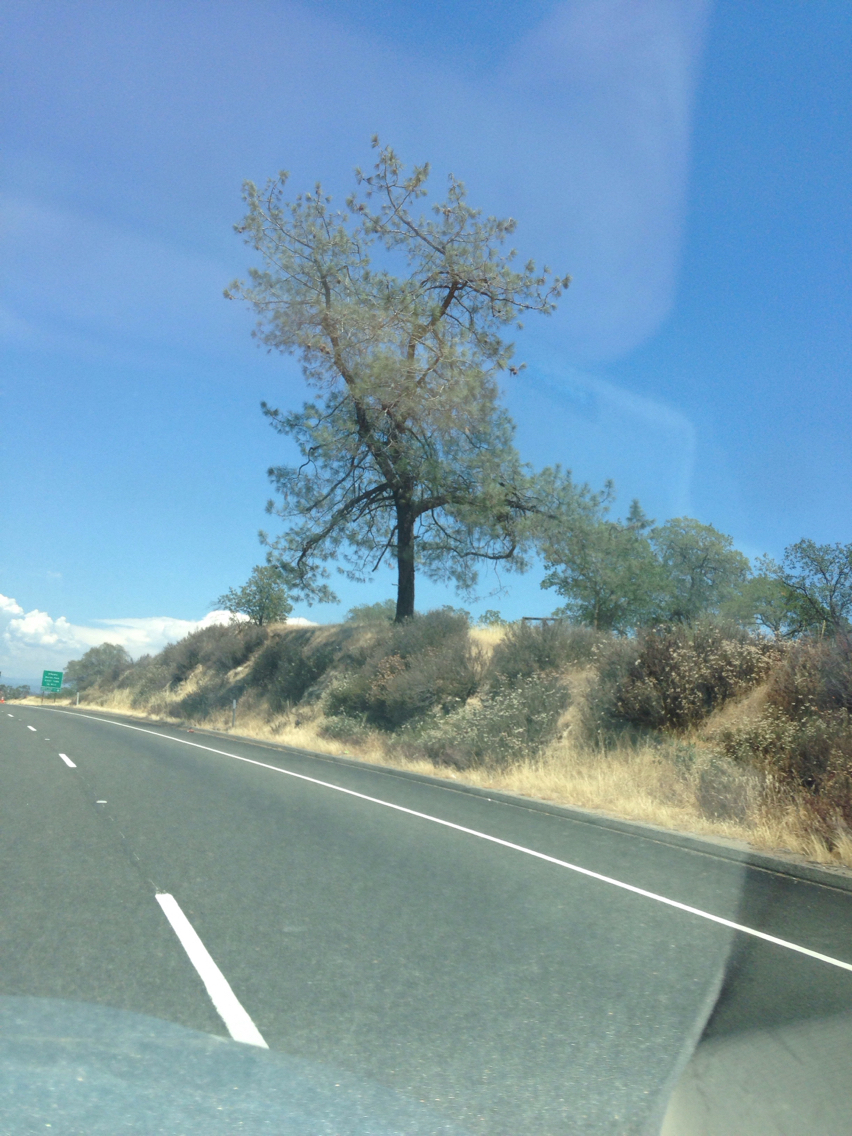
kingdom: Plantae
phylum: Tracheophyta
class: Magnoliopsida
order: Caryophyllales
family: Polygonaceae
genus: Eriogonum
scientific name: Eriogonum fasciculatum
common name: California wild buckwheat
